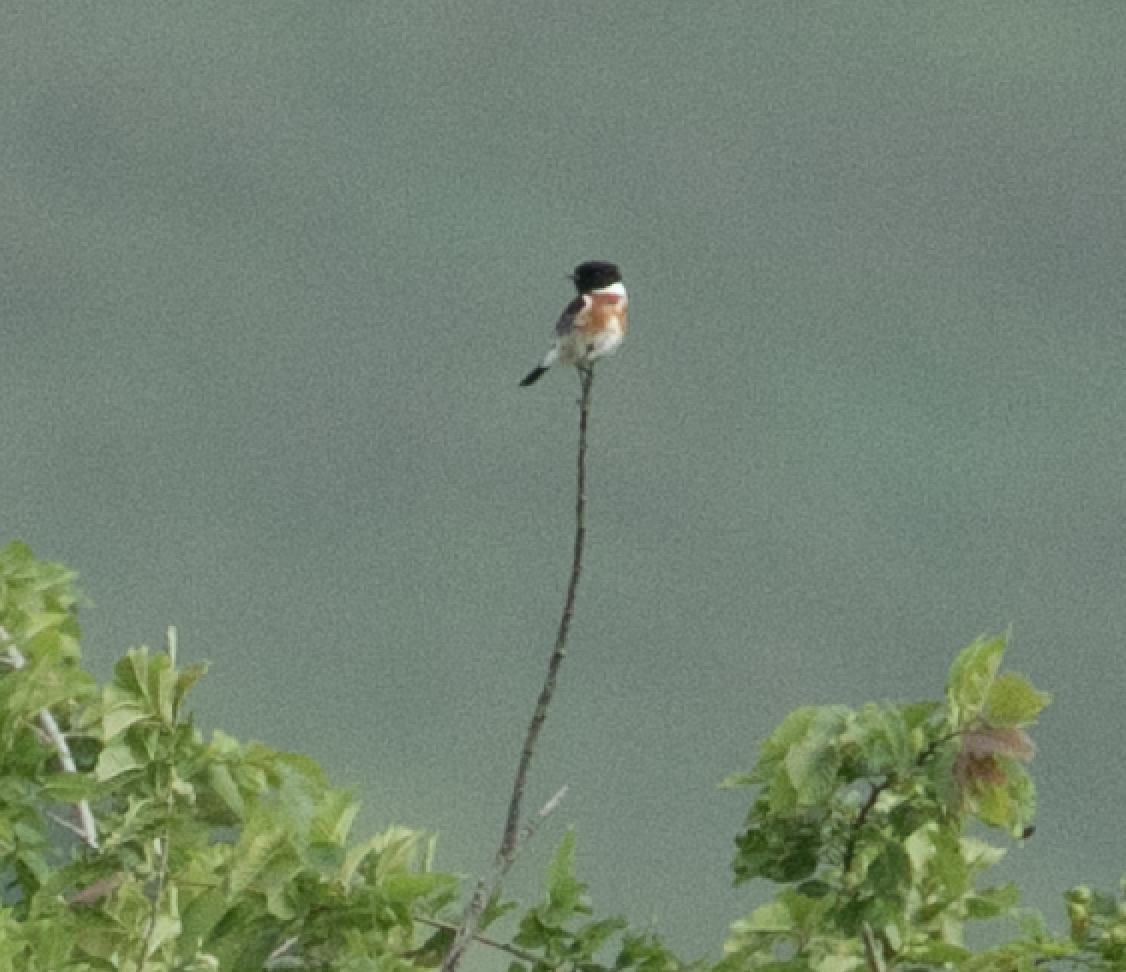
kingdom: Animalia
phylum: Chordata
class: Aves
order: Passeriformes
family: Muscicapidae
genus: Saxicola
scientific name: Saxicola rubicola
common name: European stonechat
